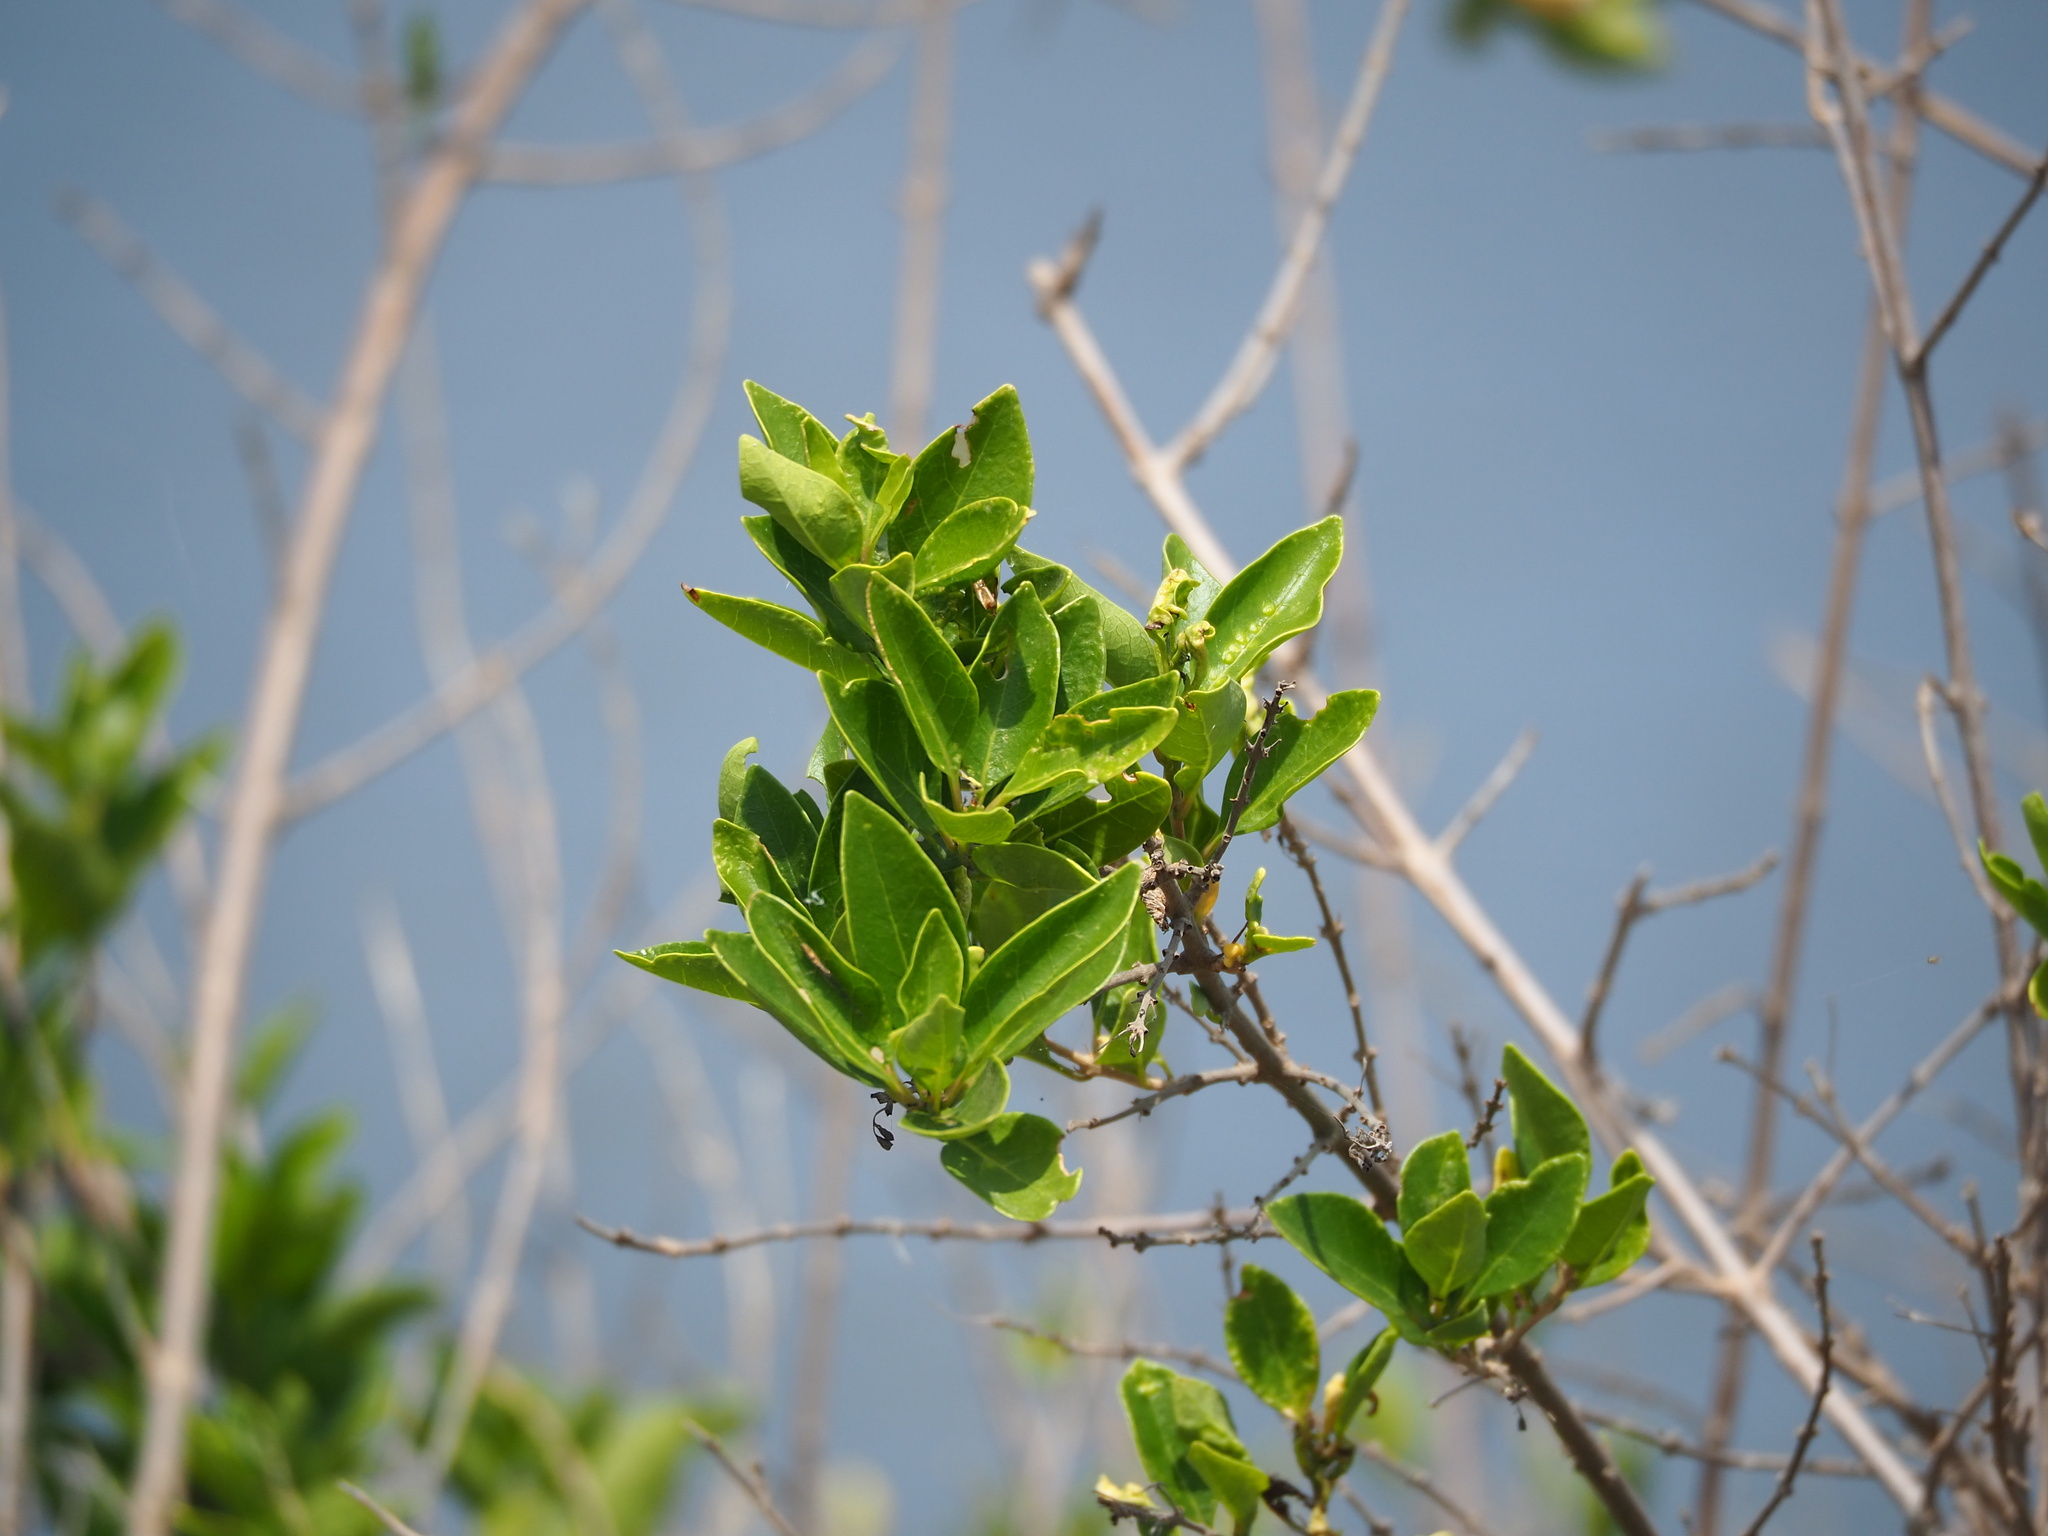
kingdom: Plantae
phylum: Tracheophyta
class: Magnoliopsida
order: Lamiales
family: Lamiaceae
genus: Volkameria
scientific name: Volkameria inermis
